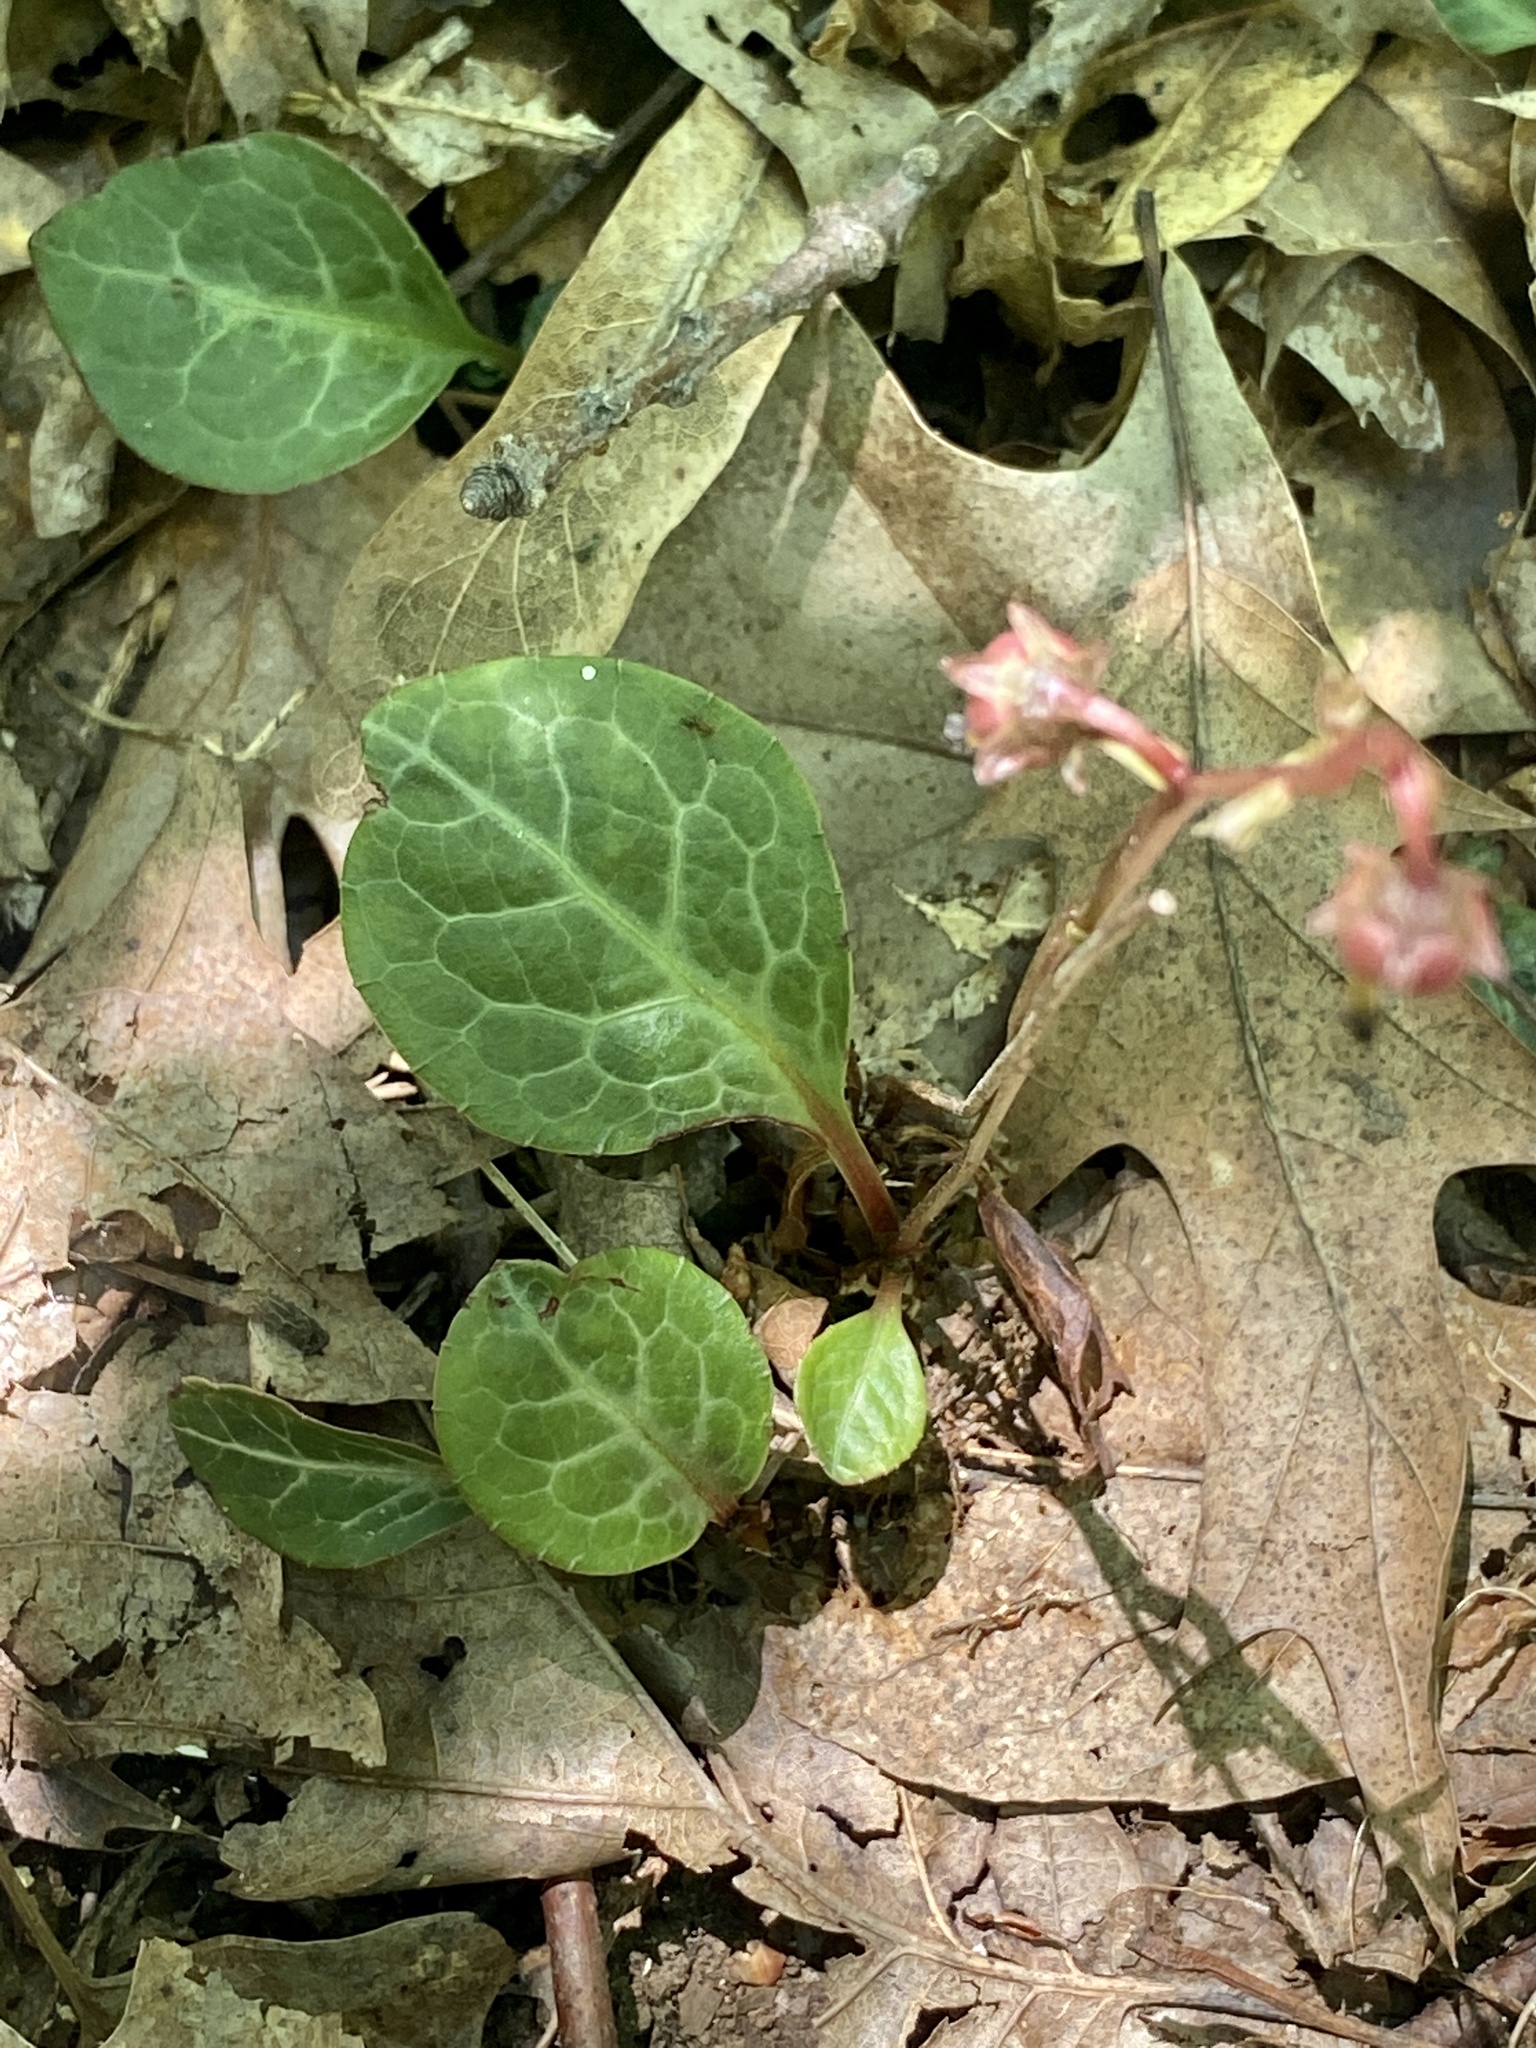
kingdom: Plantae
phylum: Tracheophyta
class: Magnoliopsida
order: Ericales
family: Ericaceae
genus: Pyrola
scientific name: Pyrola americana
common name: American wintergreen
